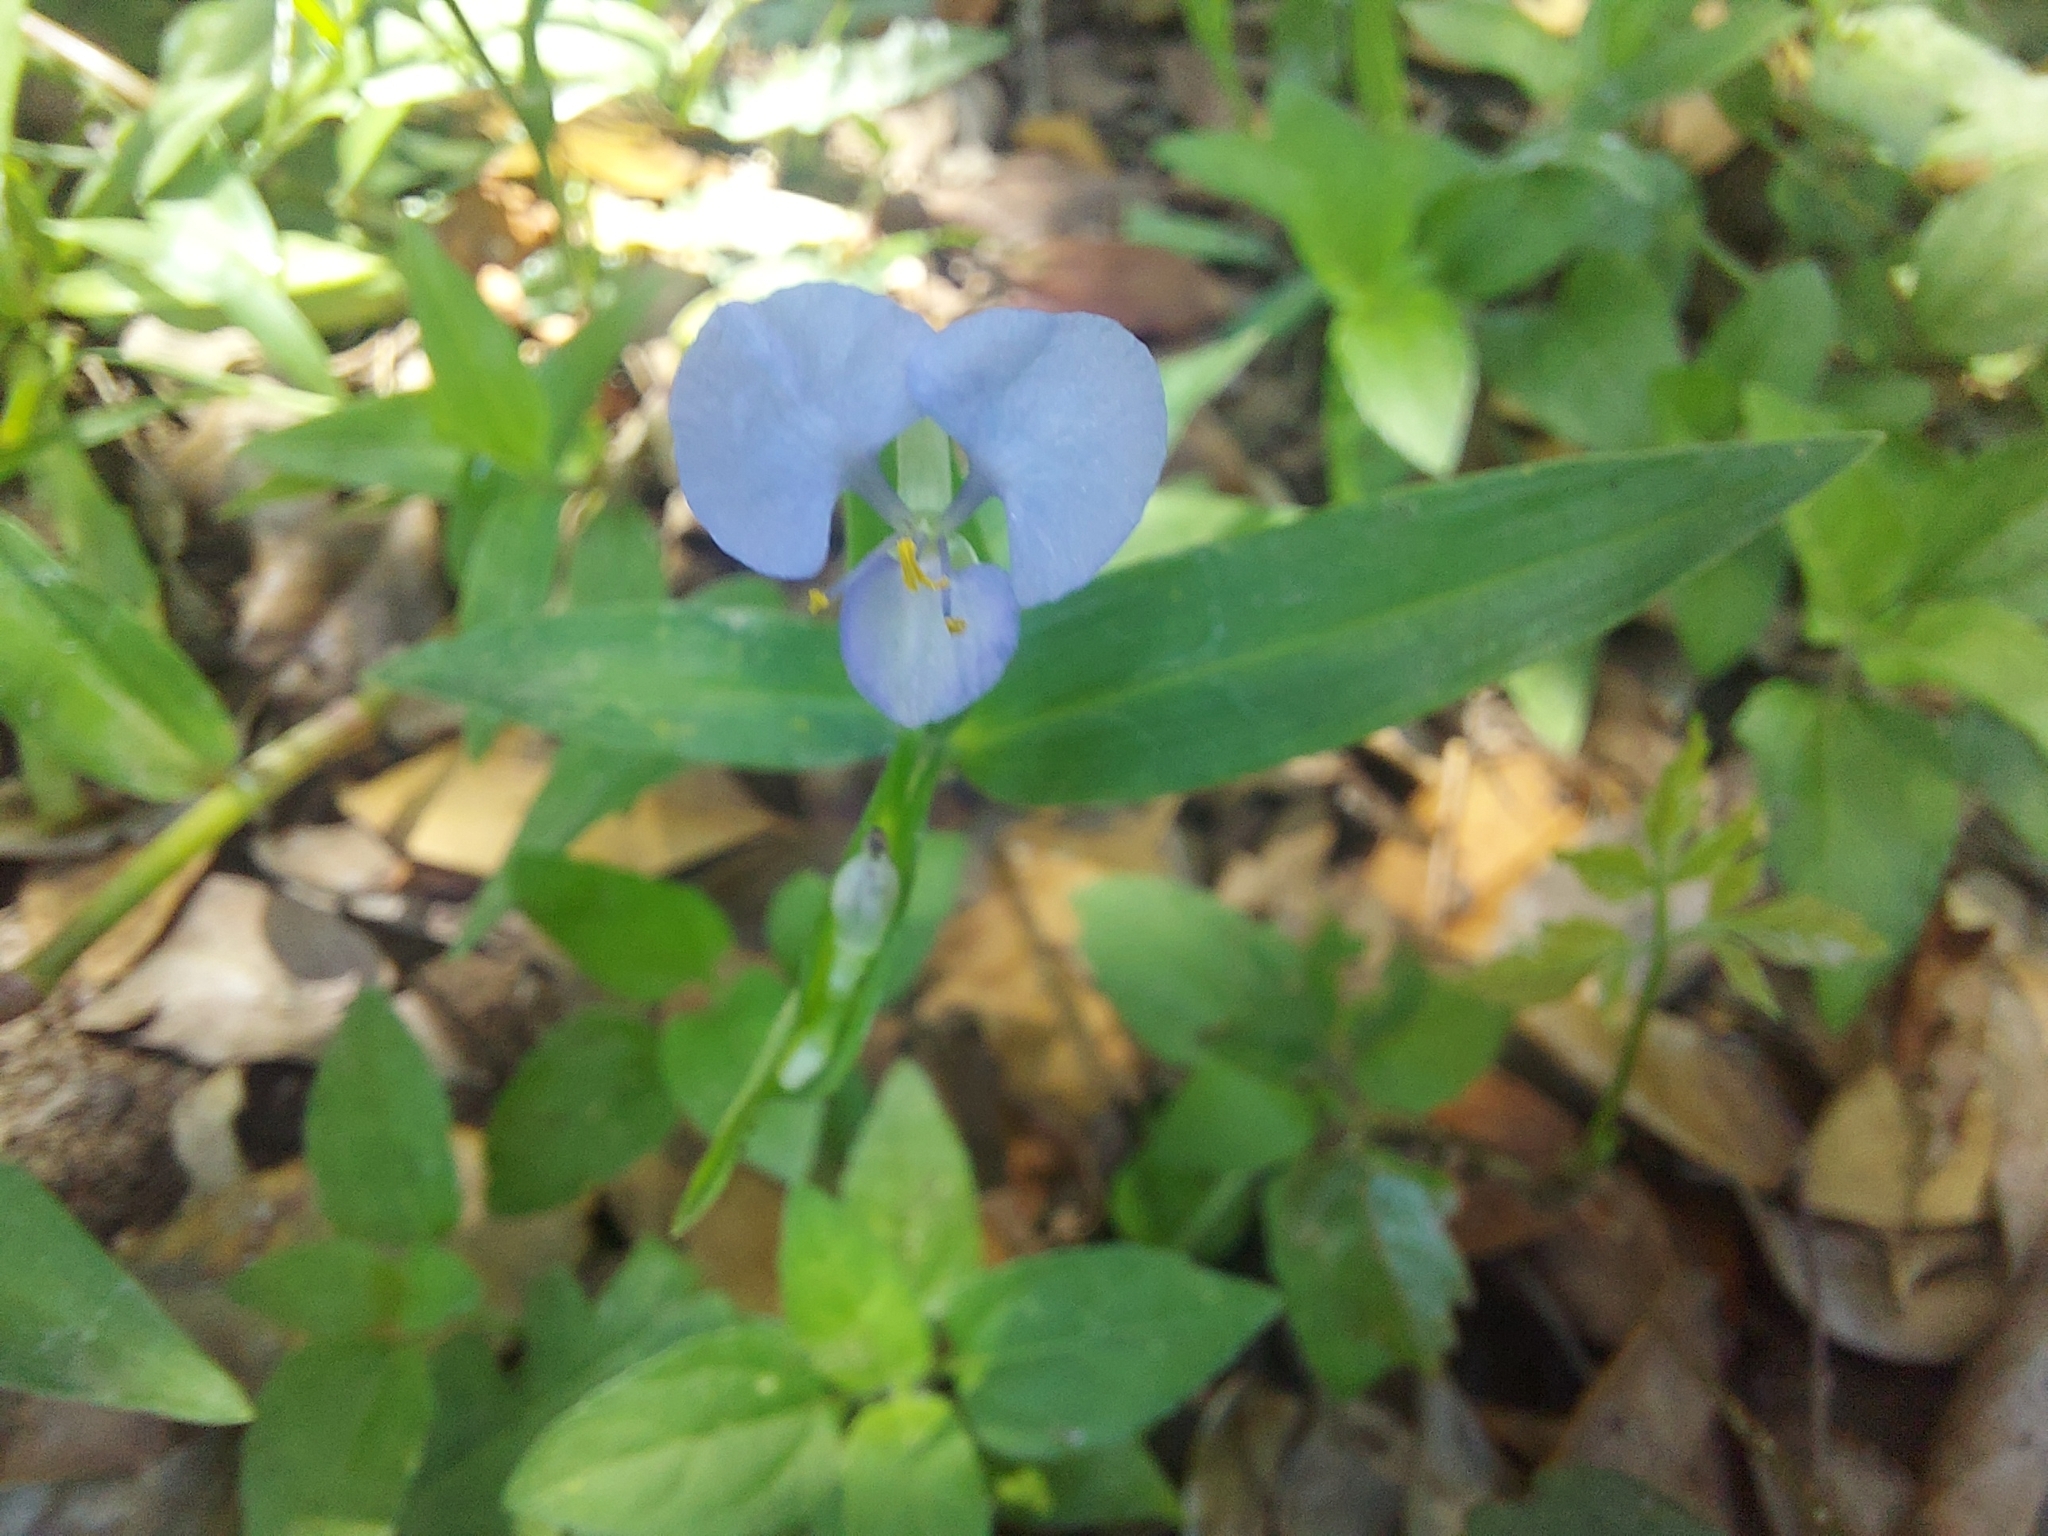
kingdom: Plantae
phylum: Tracheophyta
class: Liliopsida
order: Commelinales
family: Commelinaceae
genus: Commelina
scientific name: Commelina erecta
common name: Blousel blommetjie
